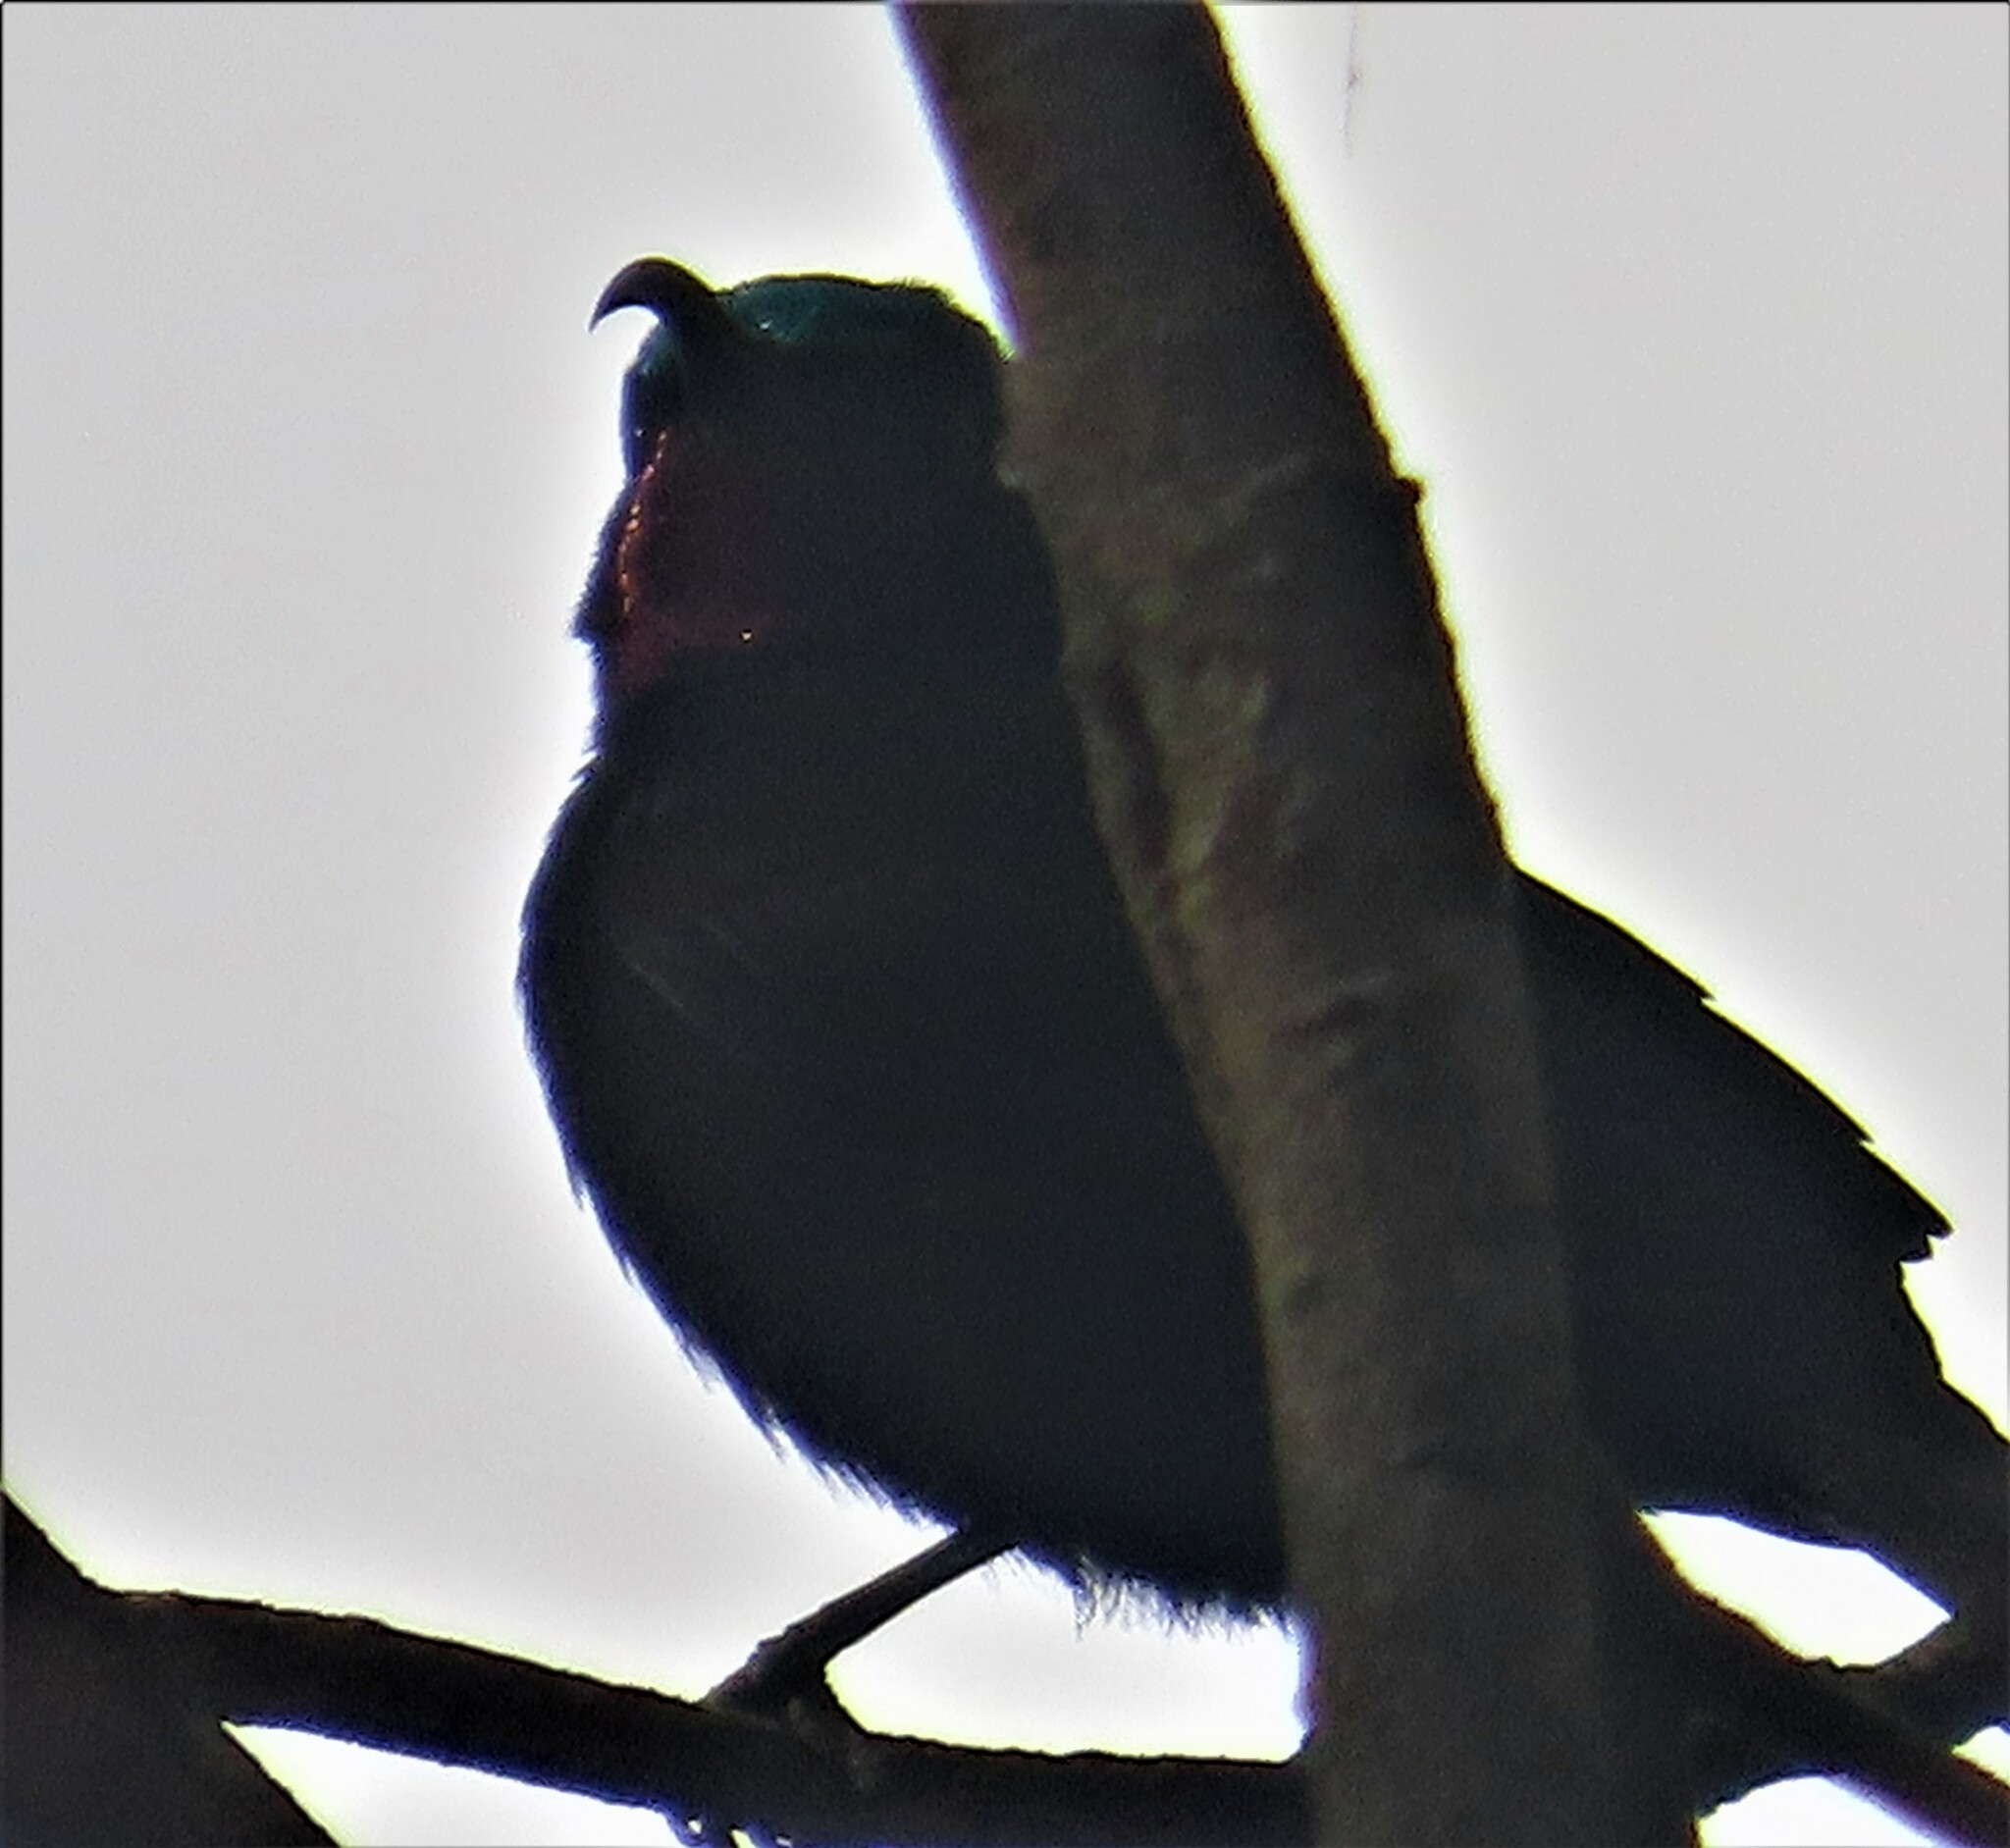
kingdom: Animalia
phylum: Chordata
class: Aves
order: Passeriformes
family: Nectariniidae
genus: Chalcomitra
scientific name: Chalcomitra amethystina
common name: Amethyst sunbird
